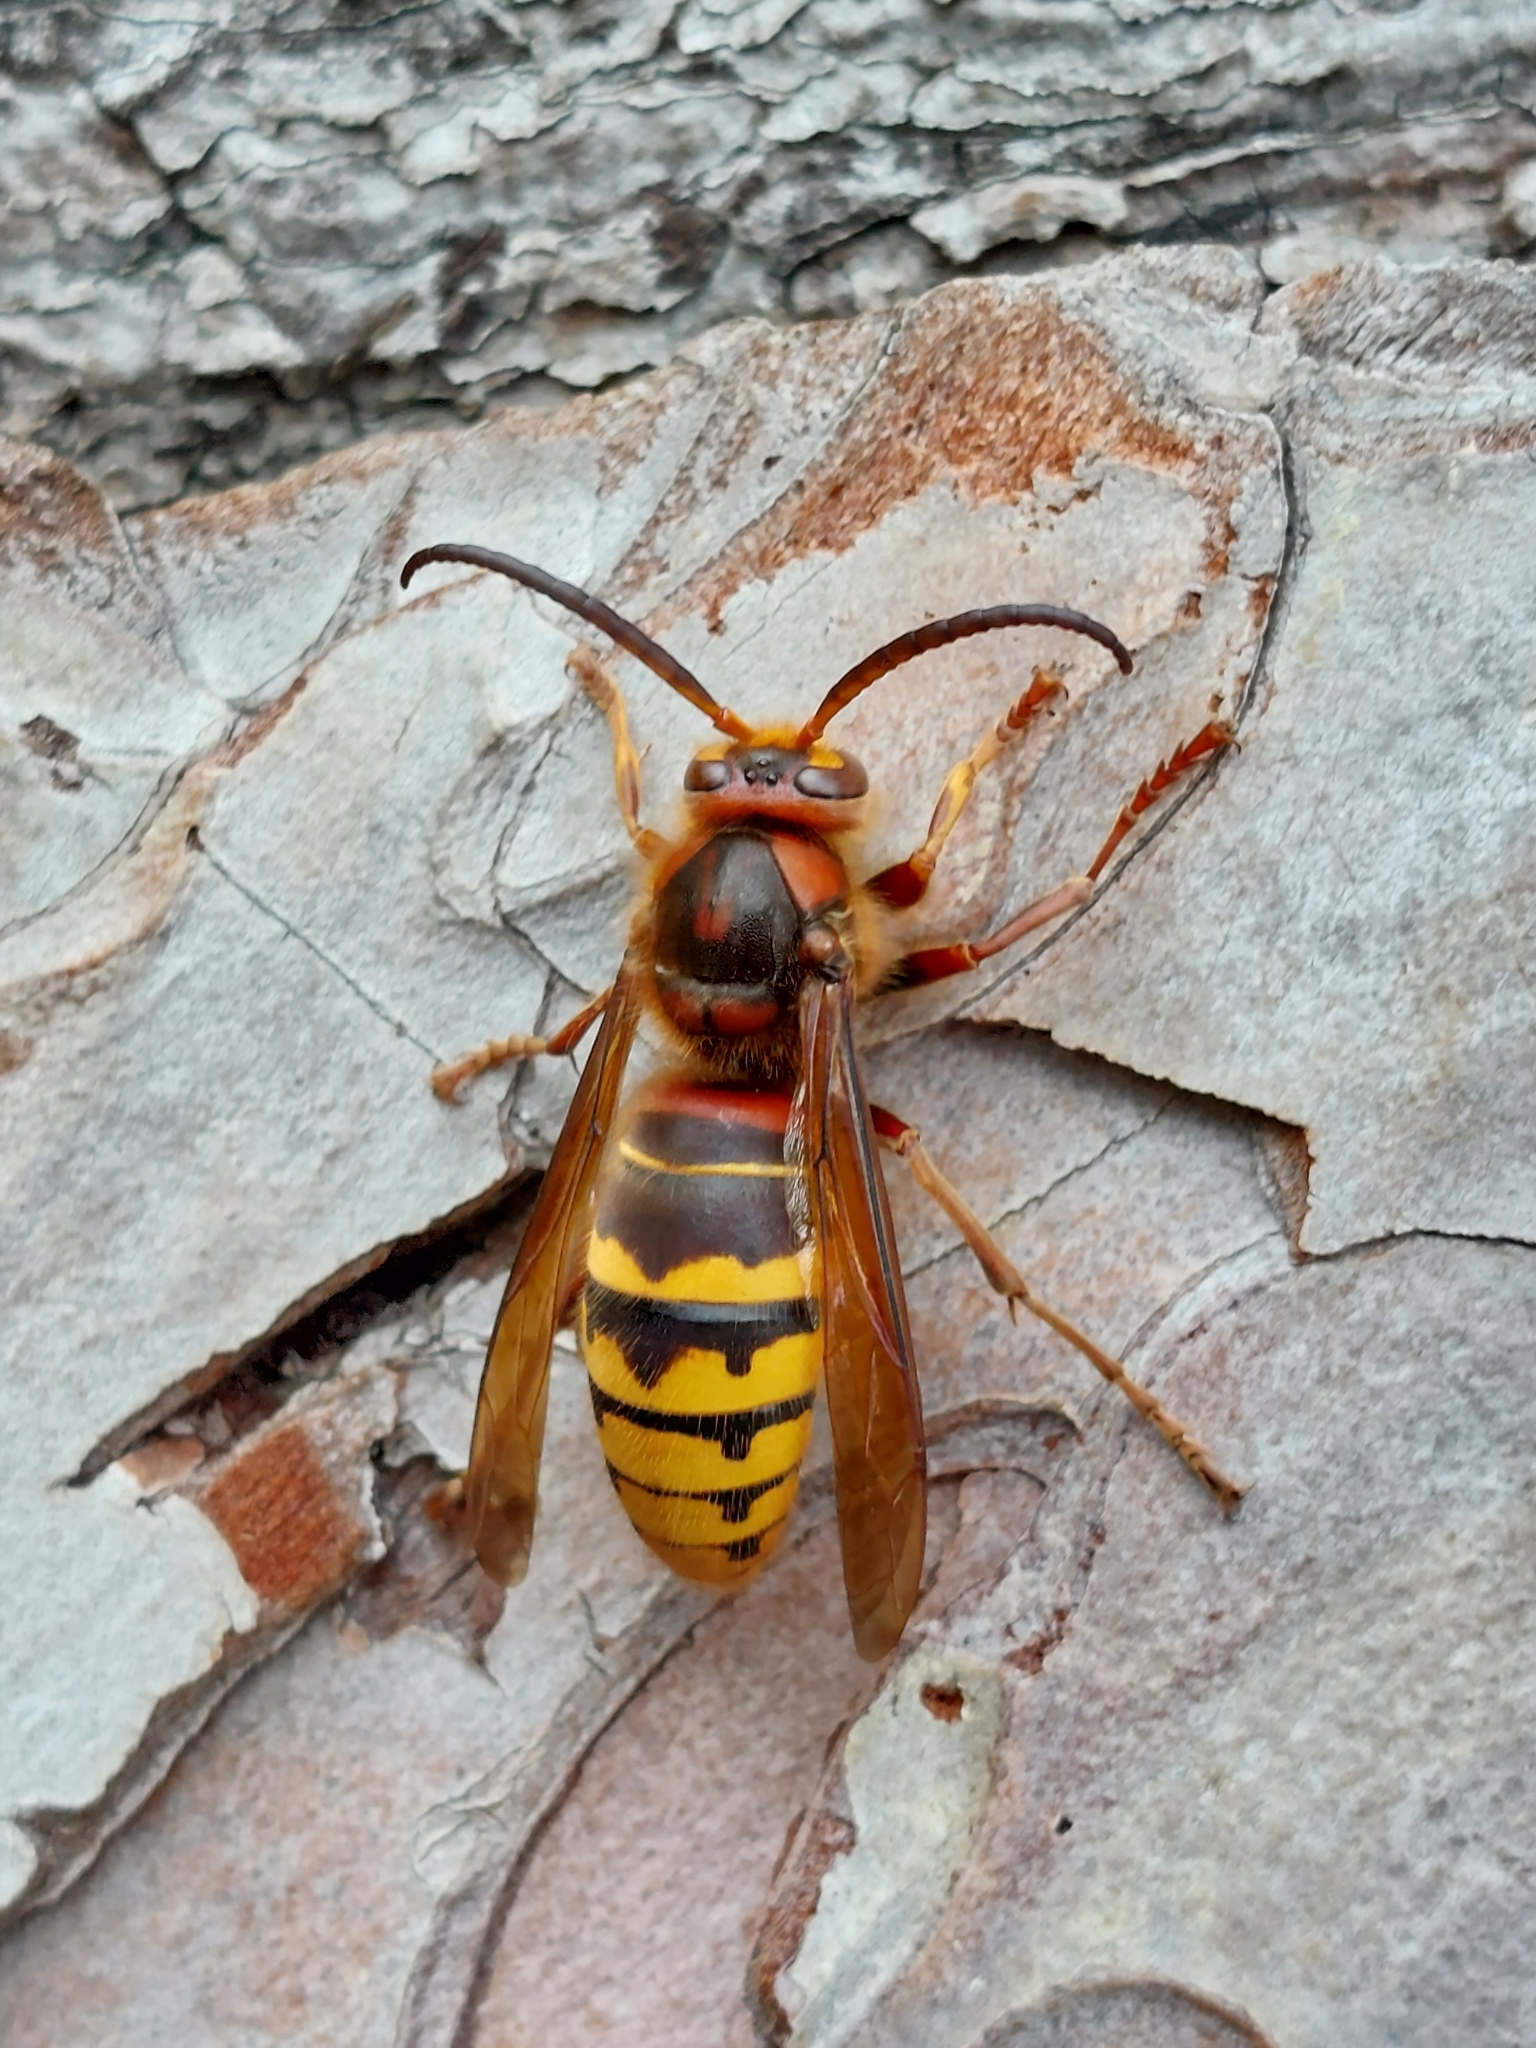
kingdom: Animalia
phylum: Arthropoda
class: Insecta
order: Hymenoptera
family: Vespidae
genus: Vespa
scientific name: Vespa crabro
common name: Hornet
